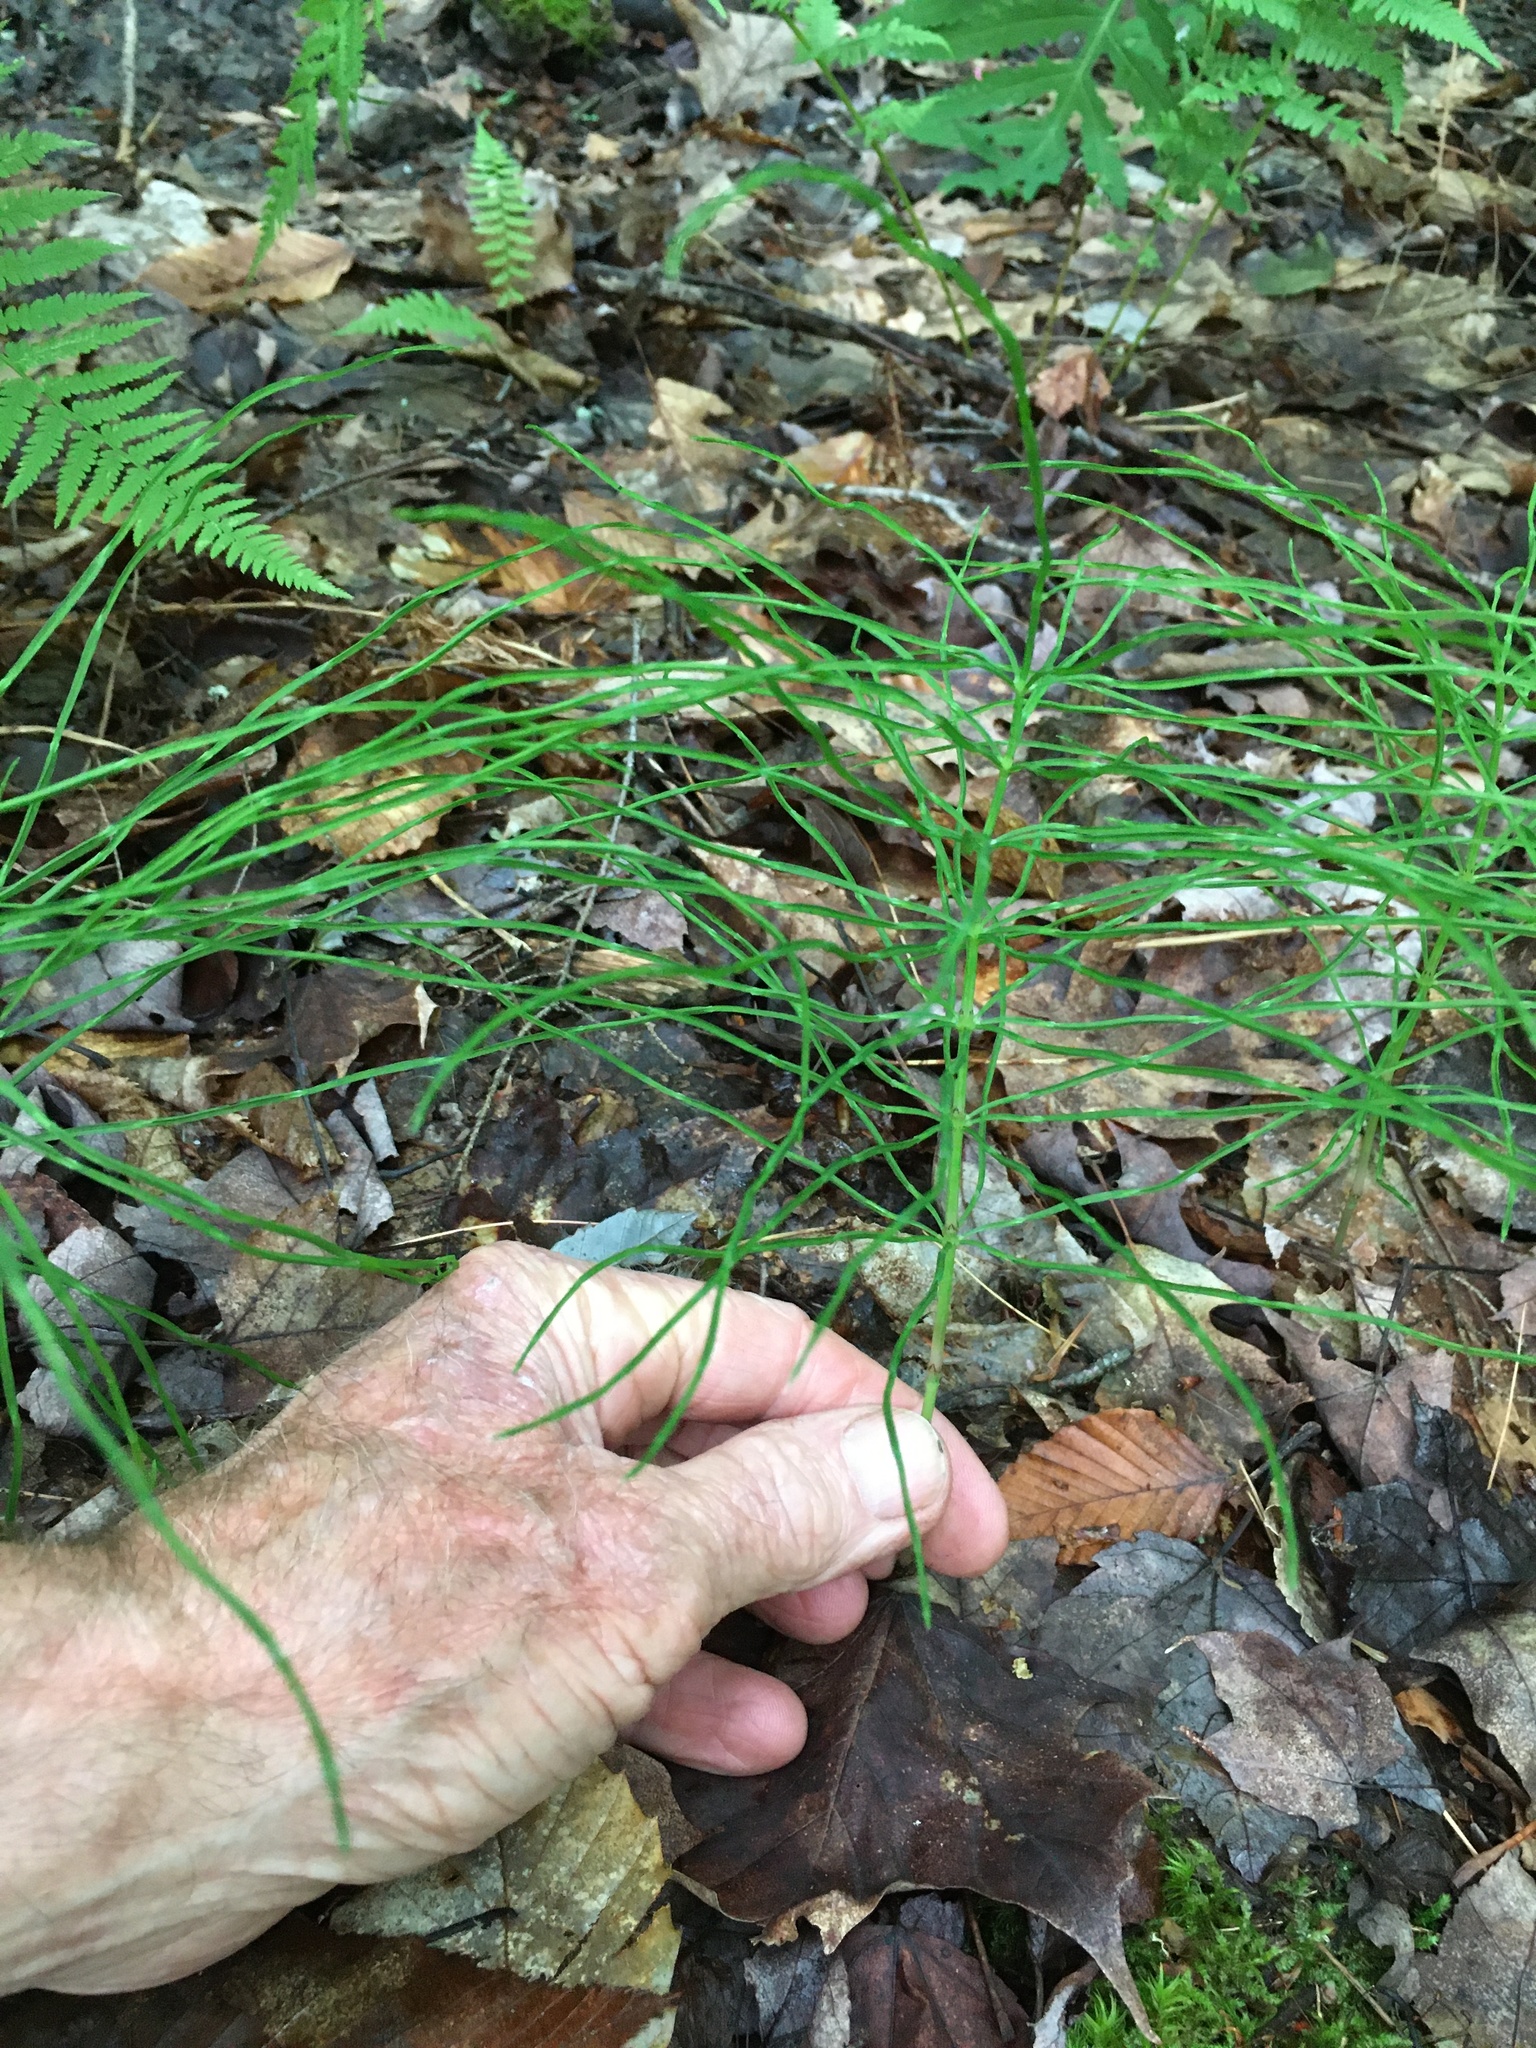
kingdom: Plantae
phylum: Tracheophyta
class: Polypodiopsida
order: Equisetales
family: Equisetaceae
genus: Equisetum
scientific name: Equisetum arvense
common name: Field horsetail
